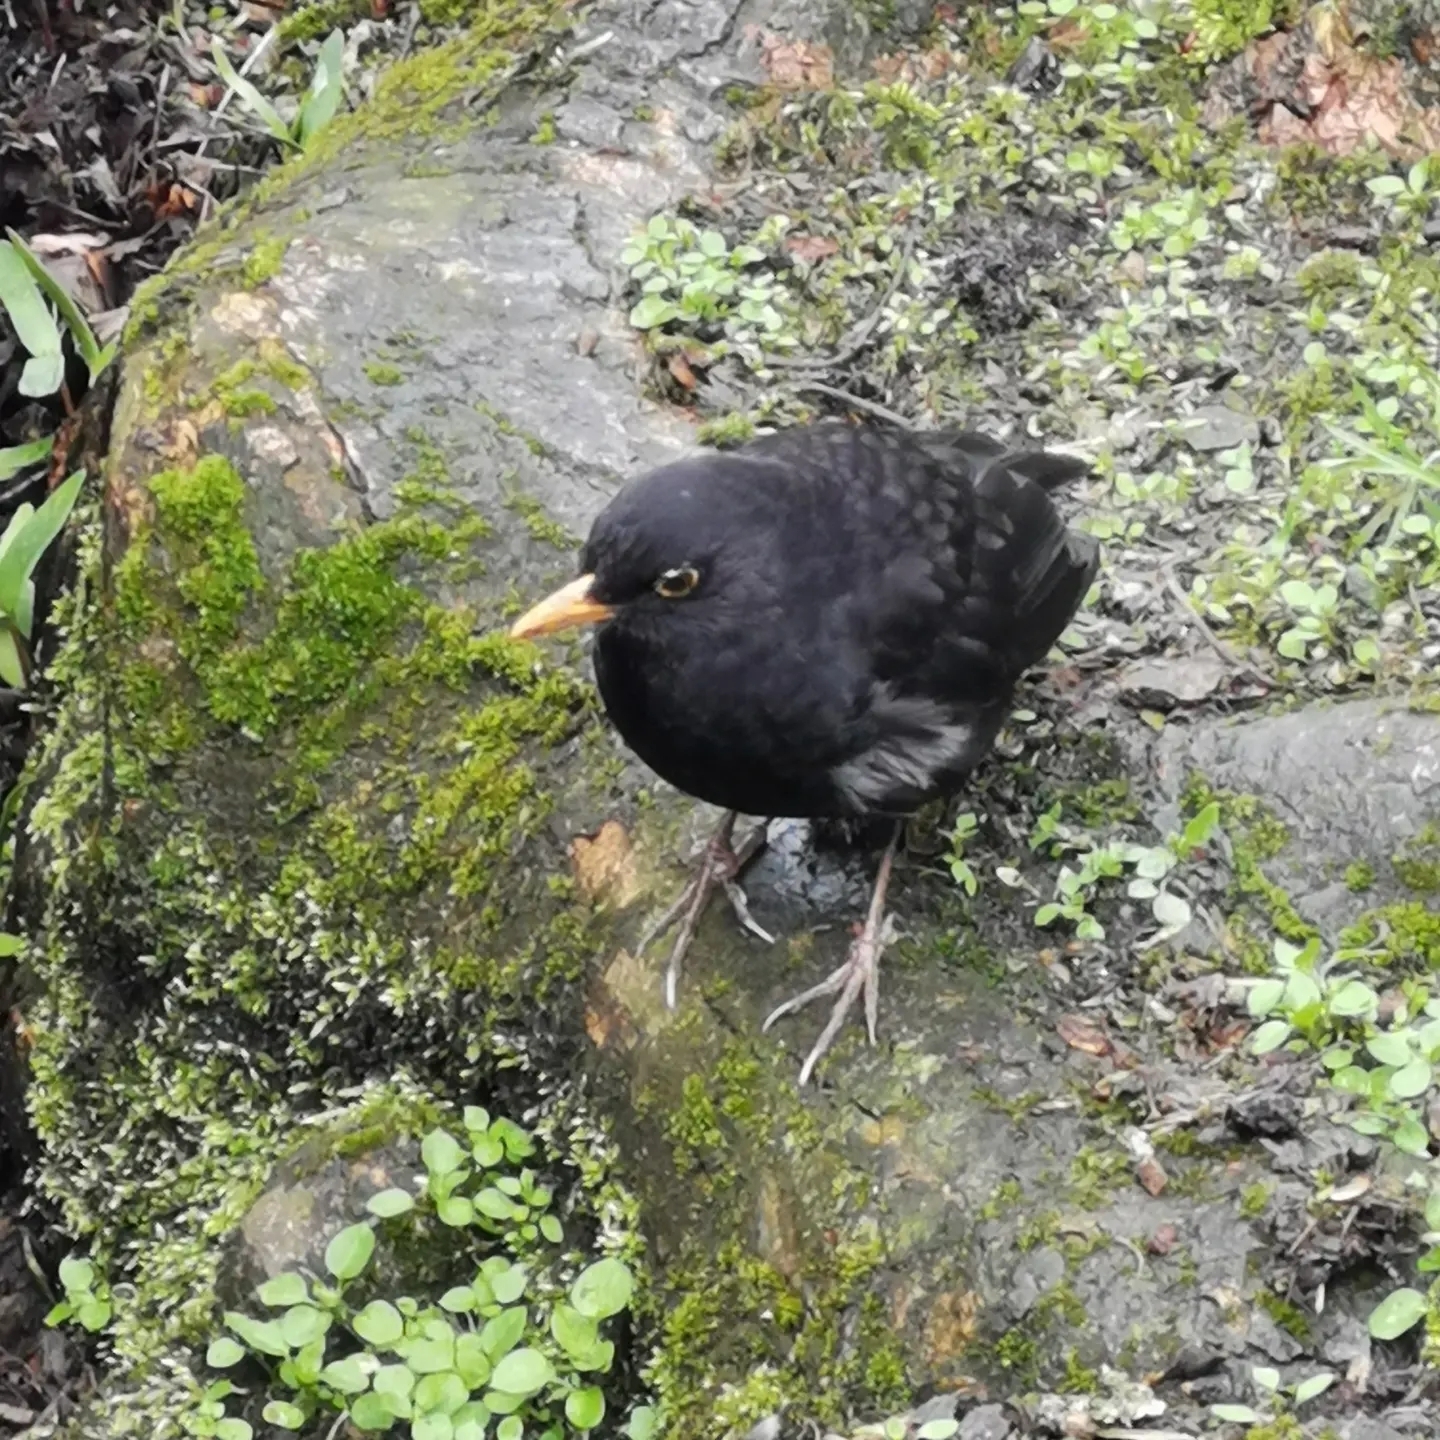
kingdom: Animalia
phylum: Chordata
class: Aves
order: Passeriformes
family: Turdidae
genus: Turdus
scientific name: Turdus merula
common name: Common blackbird
